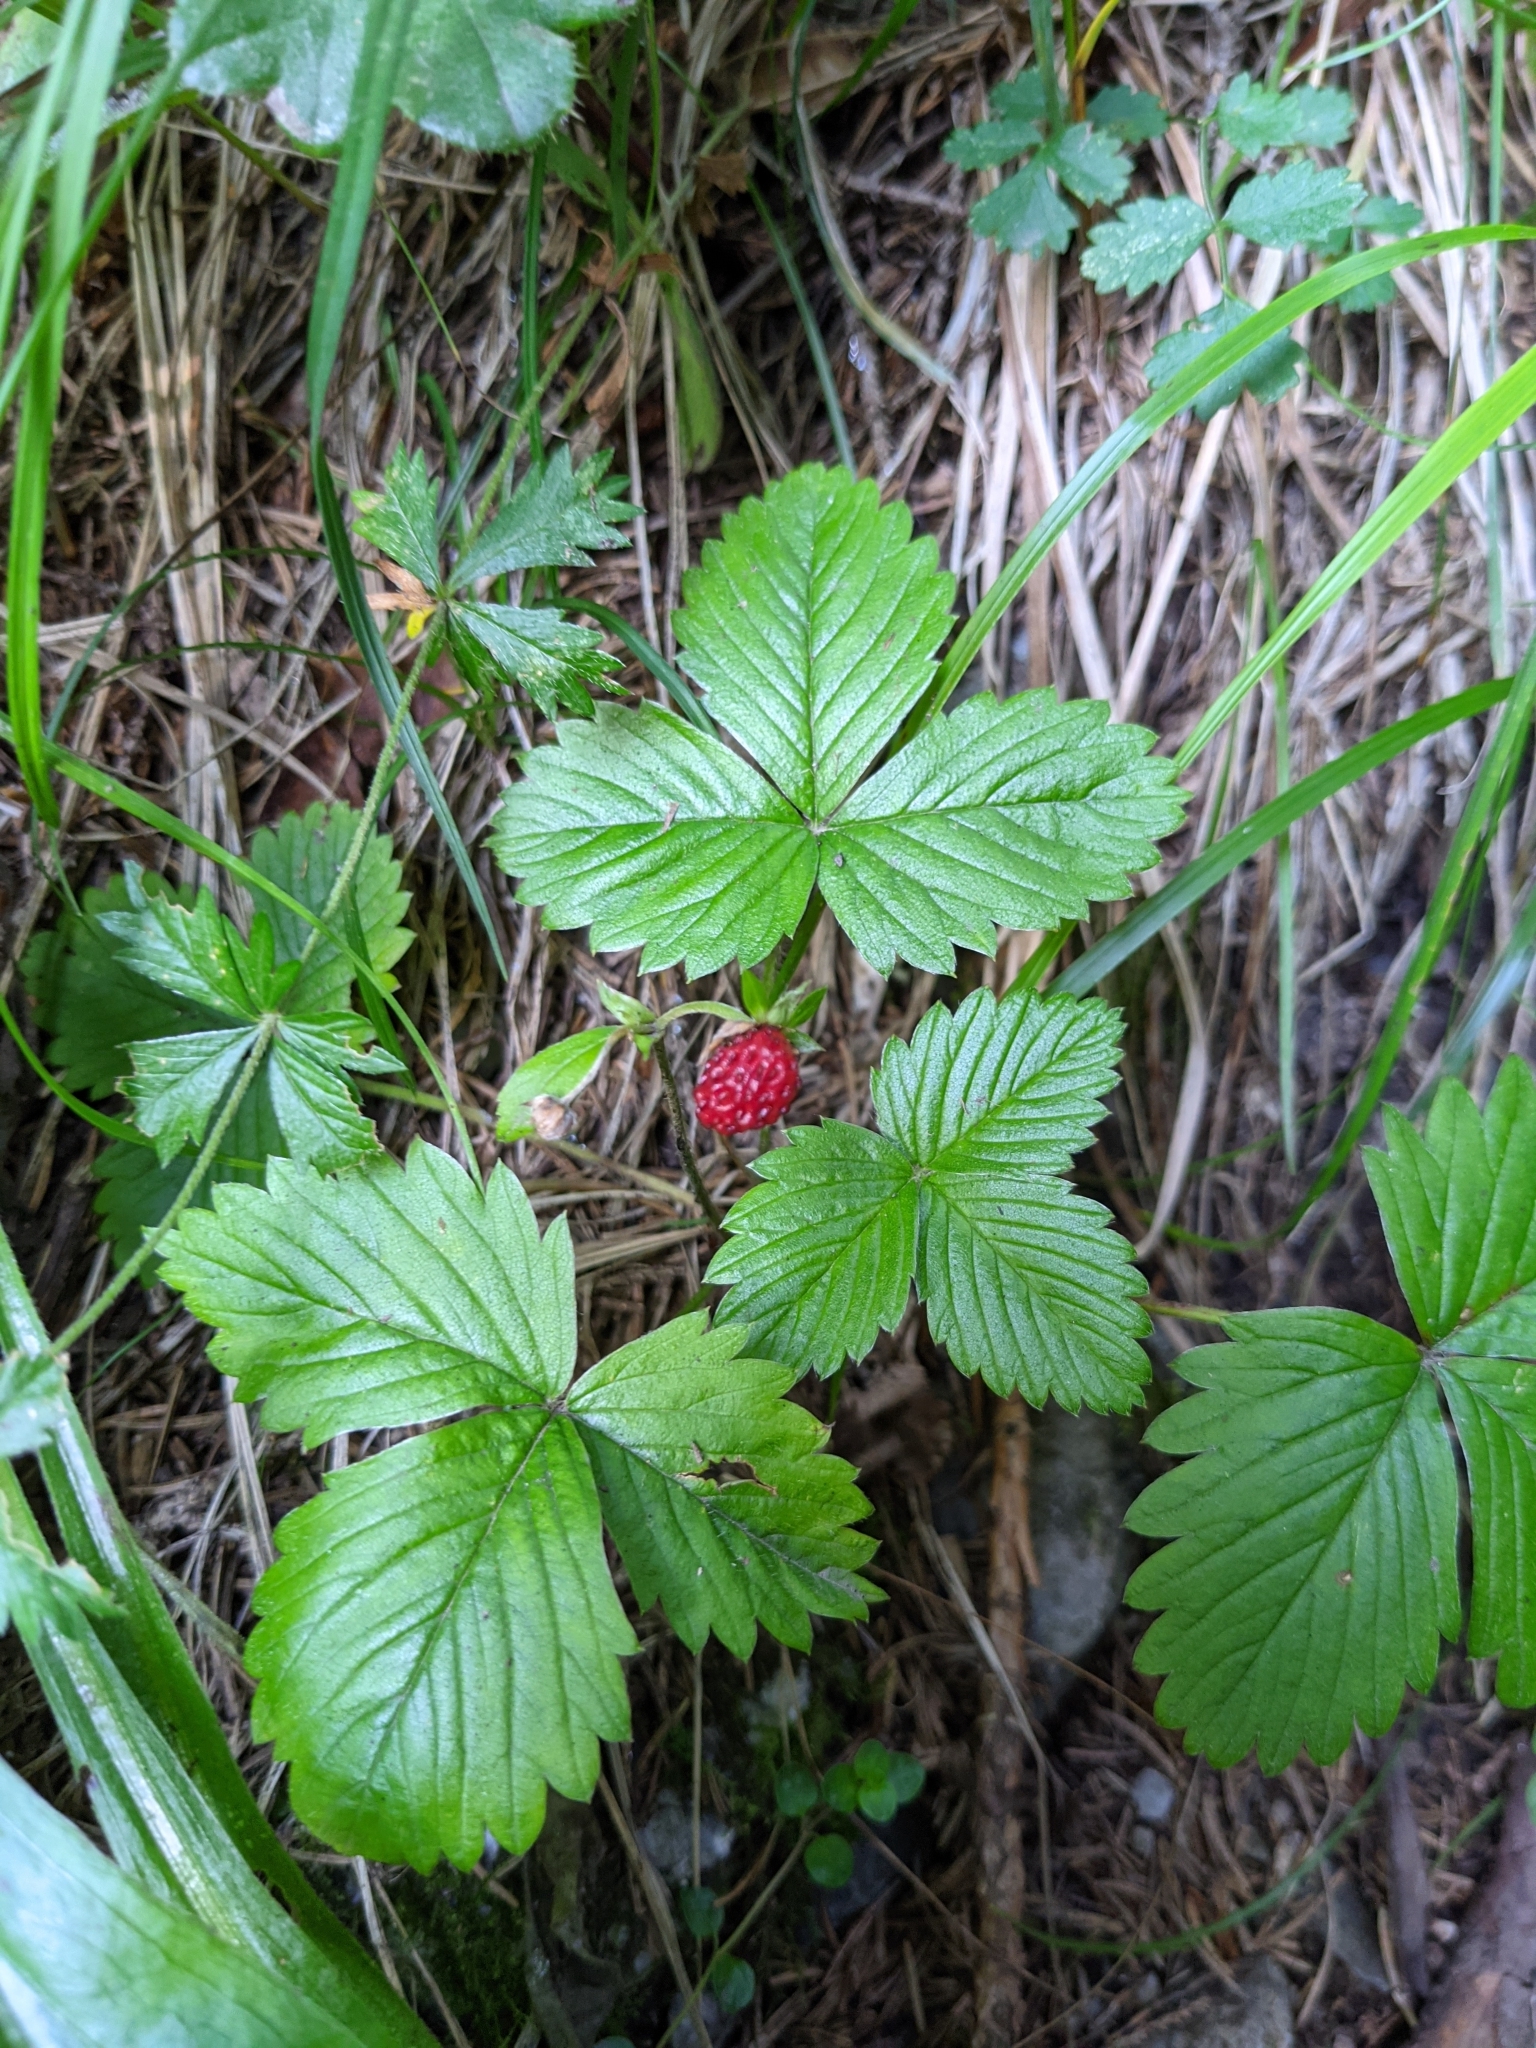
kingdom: Plantae
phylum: Tracheophyta
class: Magnoliopsida
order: Rosales
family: Rosaceae
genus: Fragaria
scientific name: Fragaria vesca
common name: Wild strawberry
